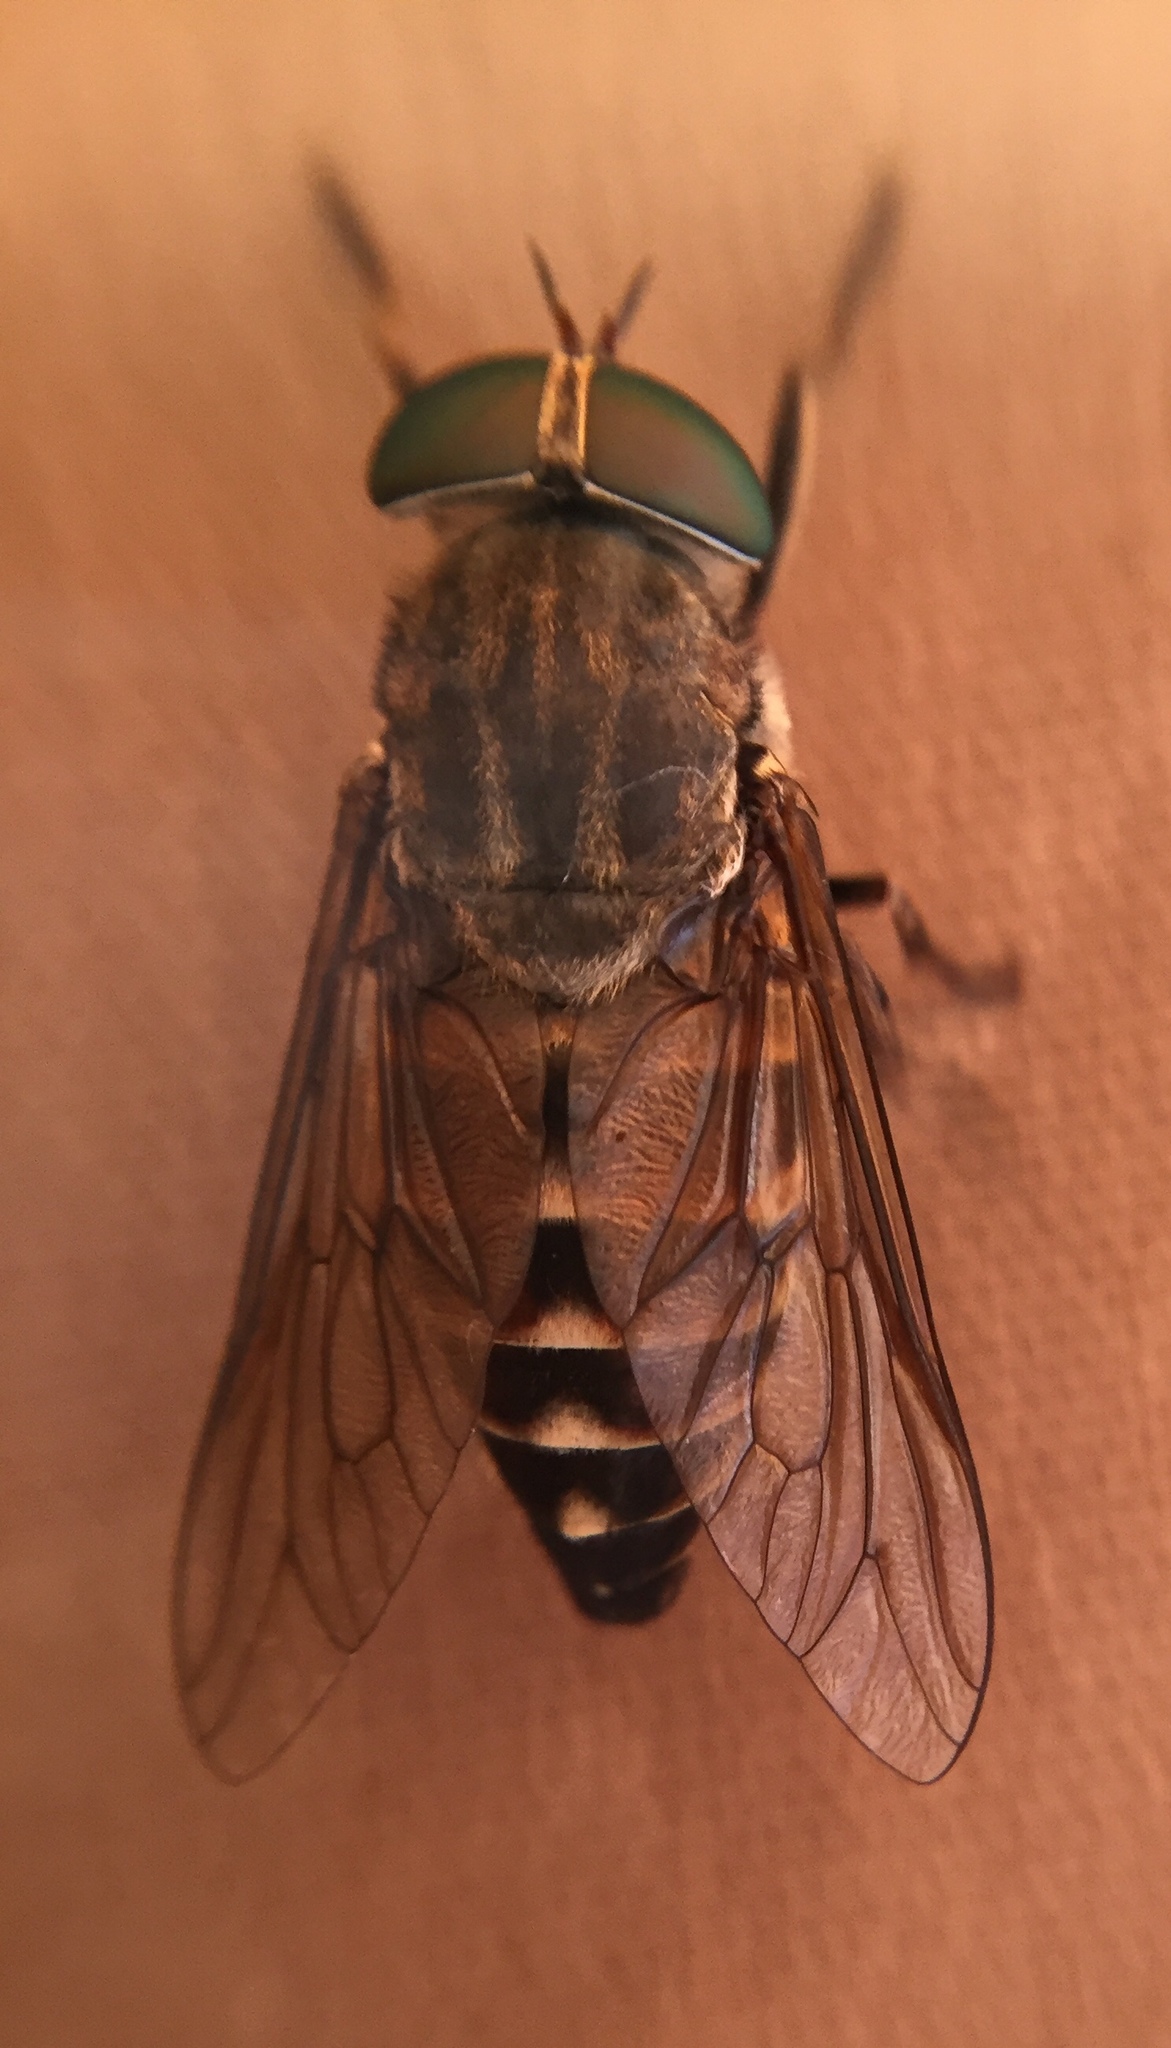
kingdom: Animalia
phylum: Arthropoda
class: Insecta
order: Diptera
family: Tabanidae
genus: Tabanus
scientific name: Tabanus
